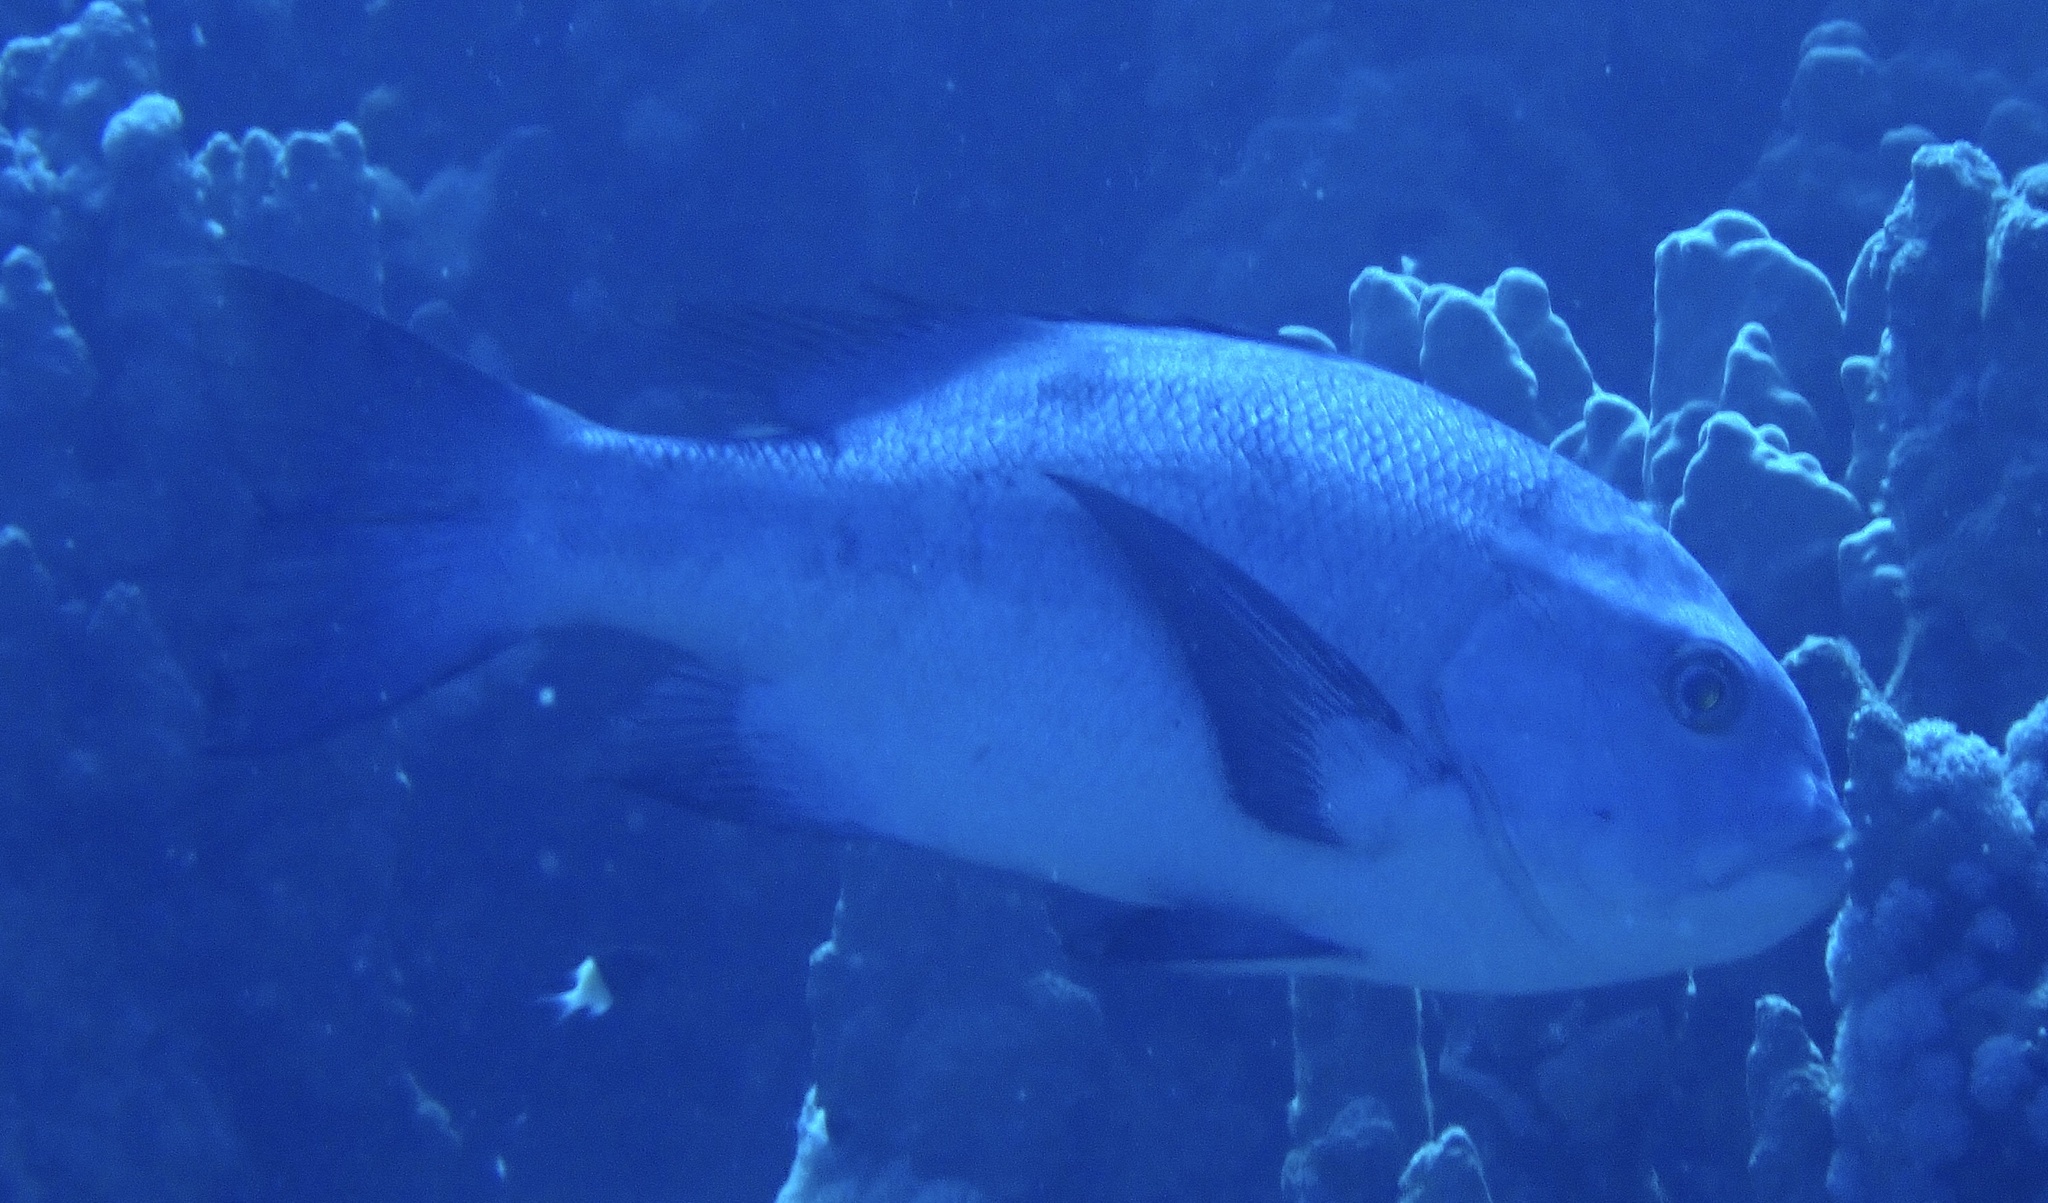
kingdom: Animalia
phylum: Chordata
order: Perciformes
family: Lutjanidae
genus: Macolor
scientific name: Macolor niger
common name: Black snapper
